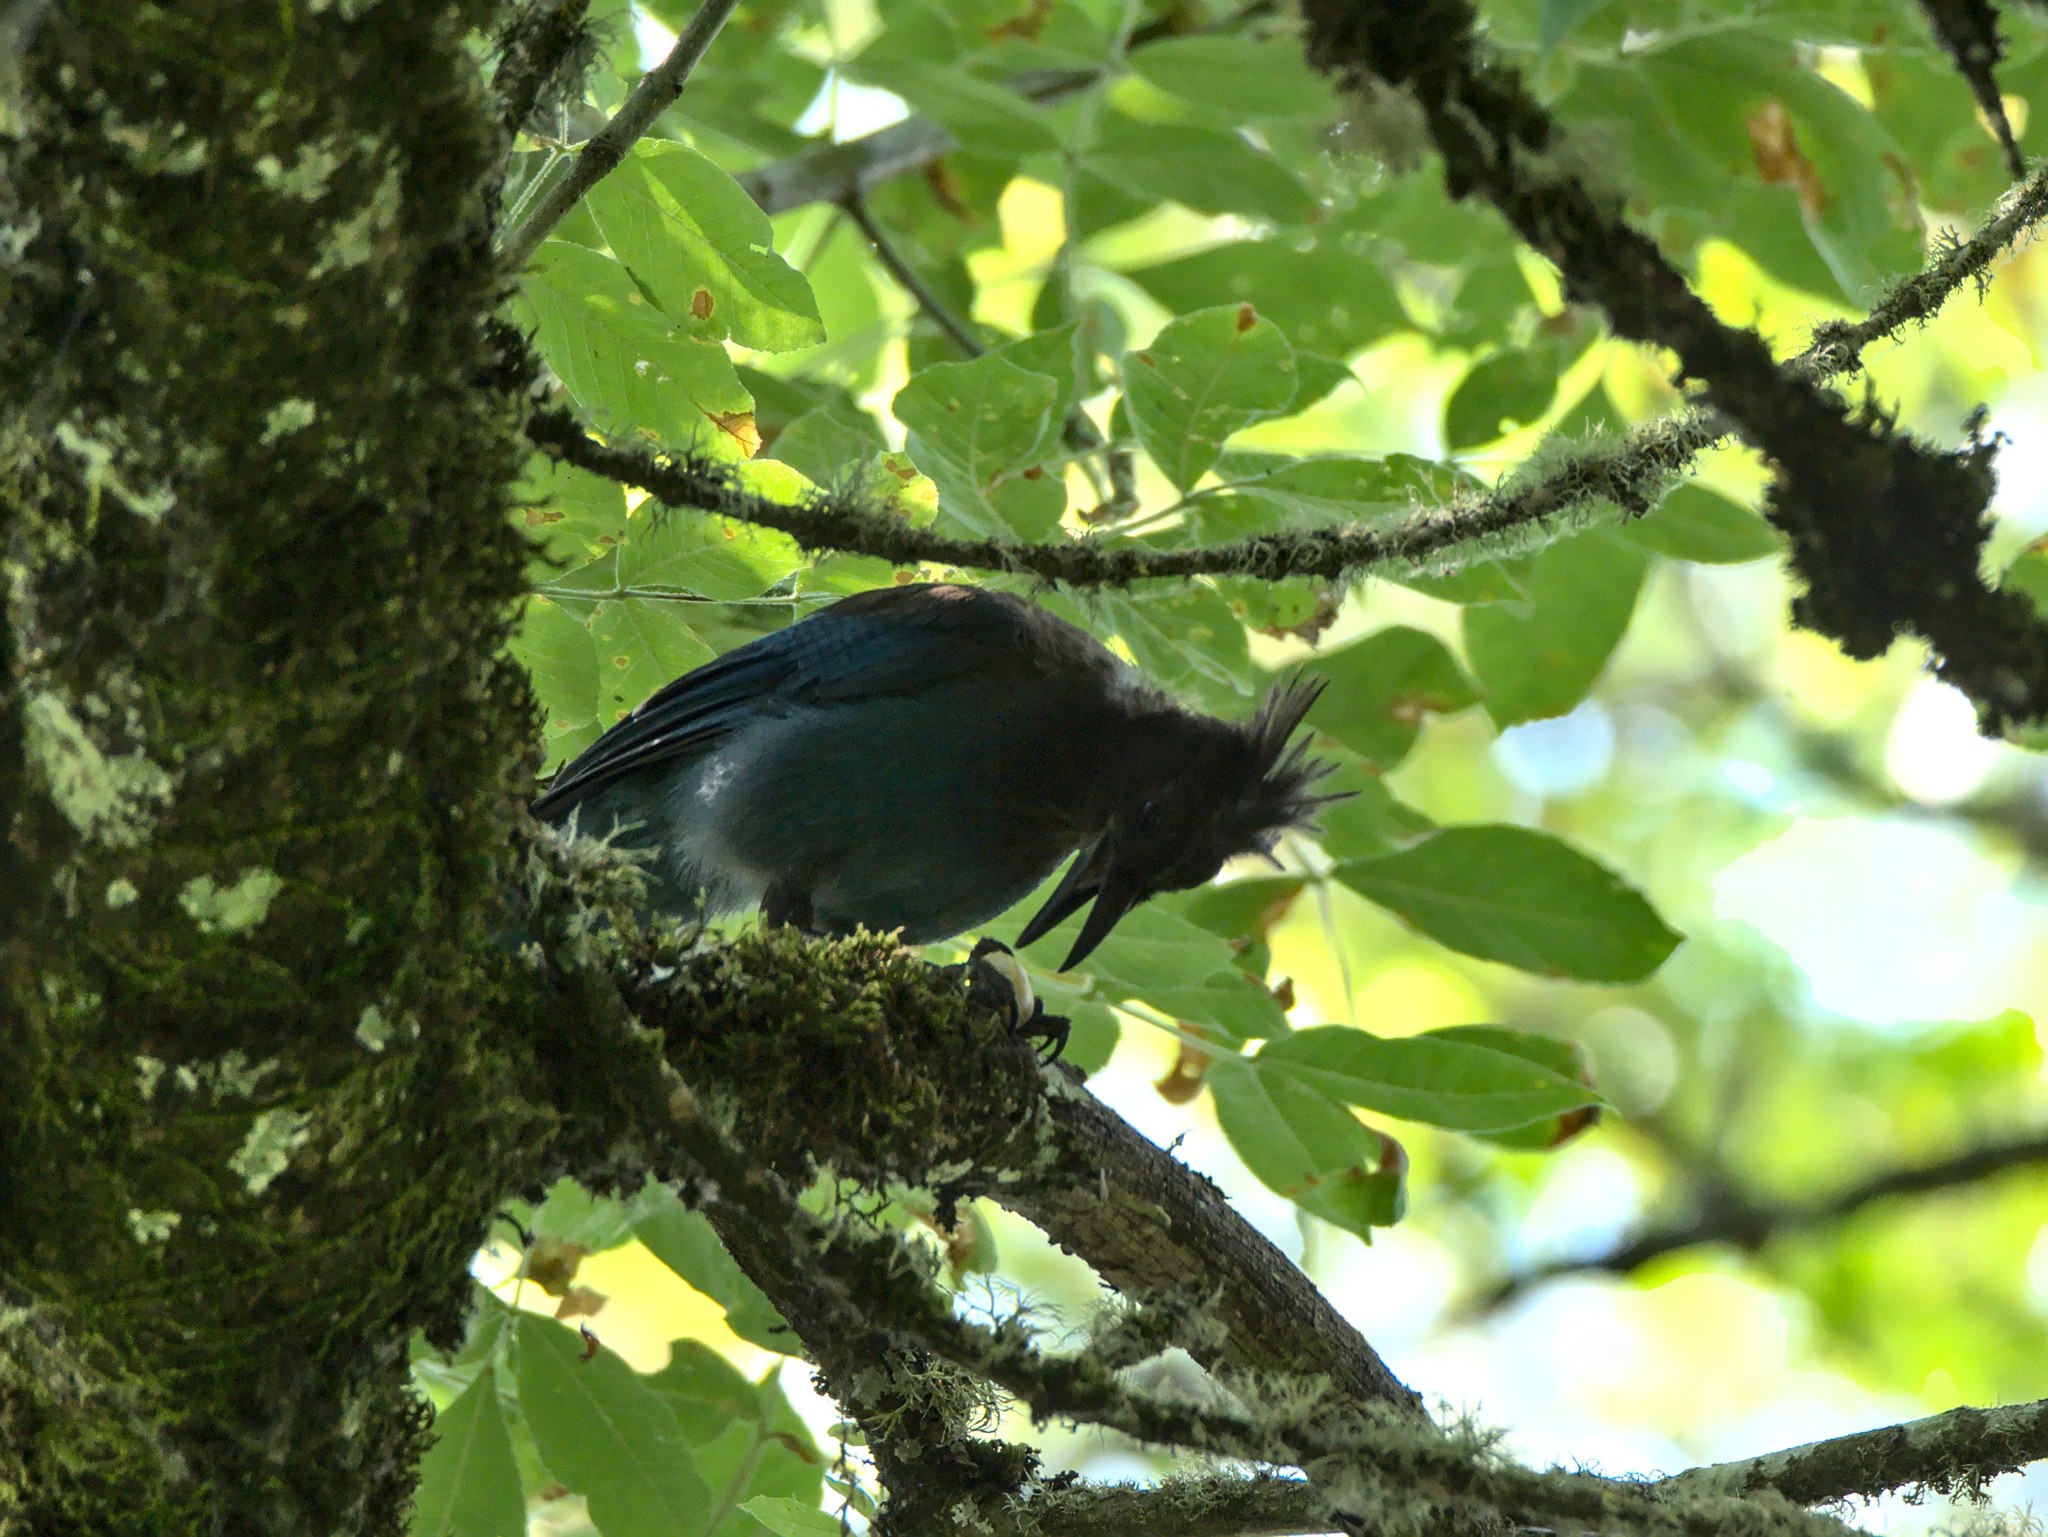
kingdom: Animalia
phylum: Chordata
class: Aves
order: Passeriformes
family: Corvidae
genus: Cyanocitta
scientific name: Cyanocitta stelleri
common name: Steller's jay
